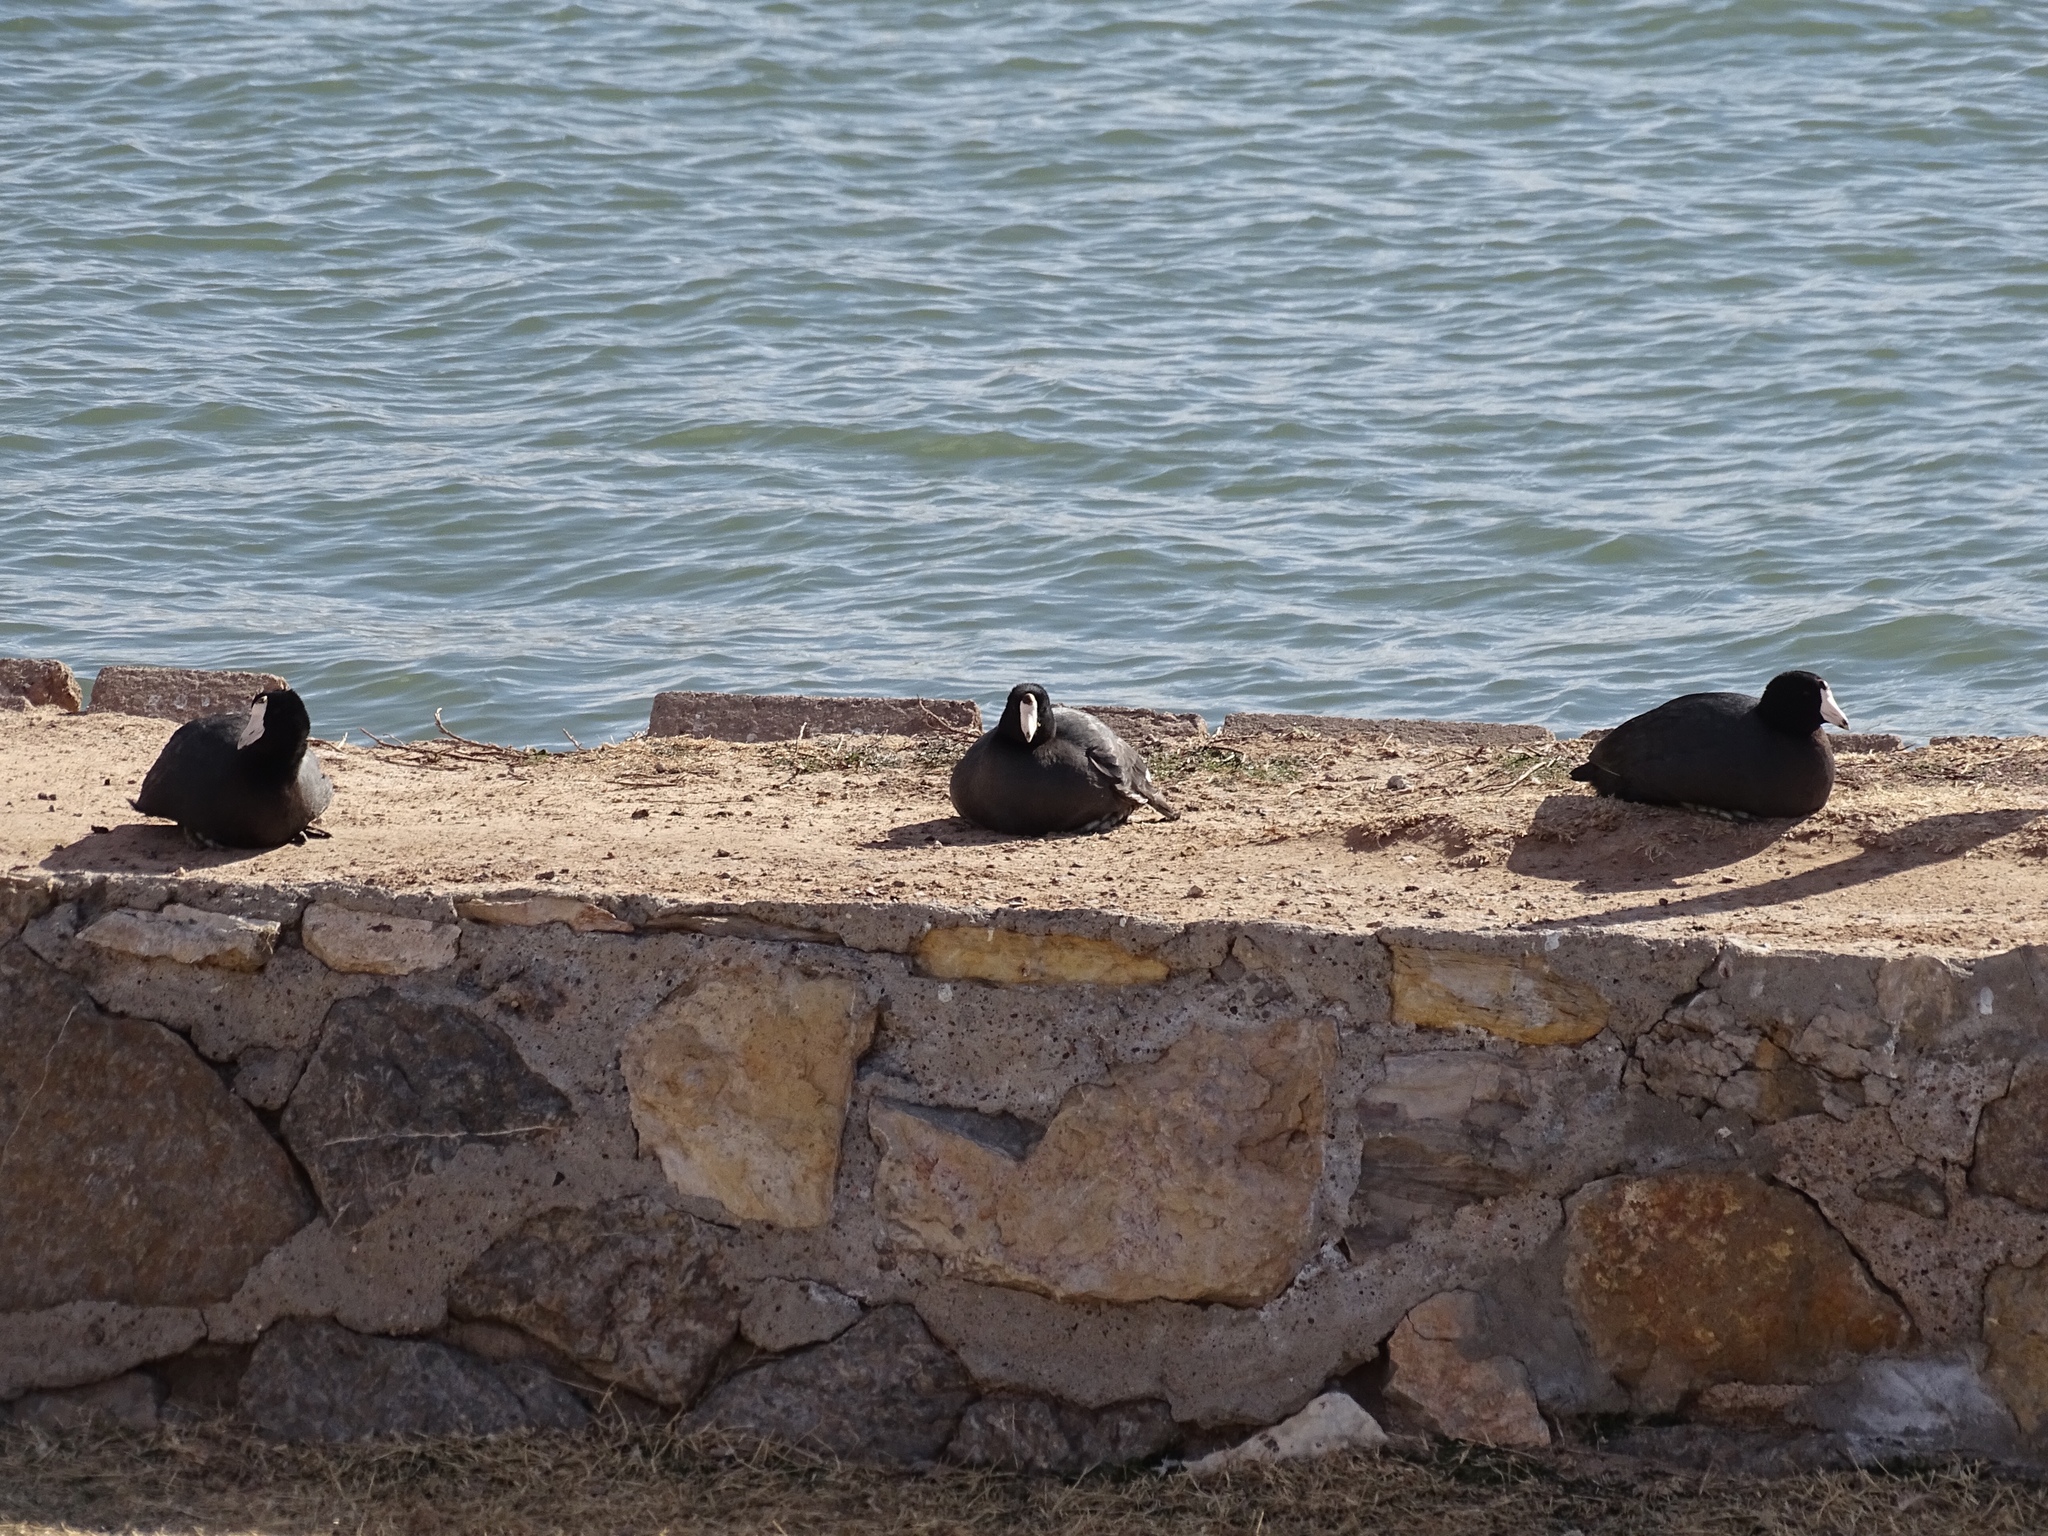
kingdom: Animalia
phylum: Chordata
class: Aves
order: Gruiformes
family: Rallidae
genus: Fulica
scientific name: Fulica americana
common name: American coot
